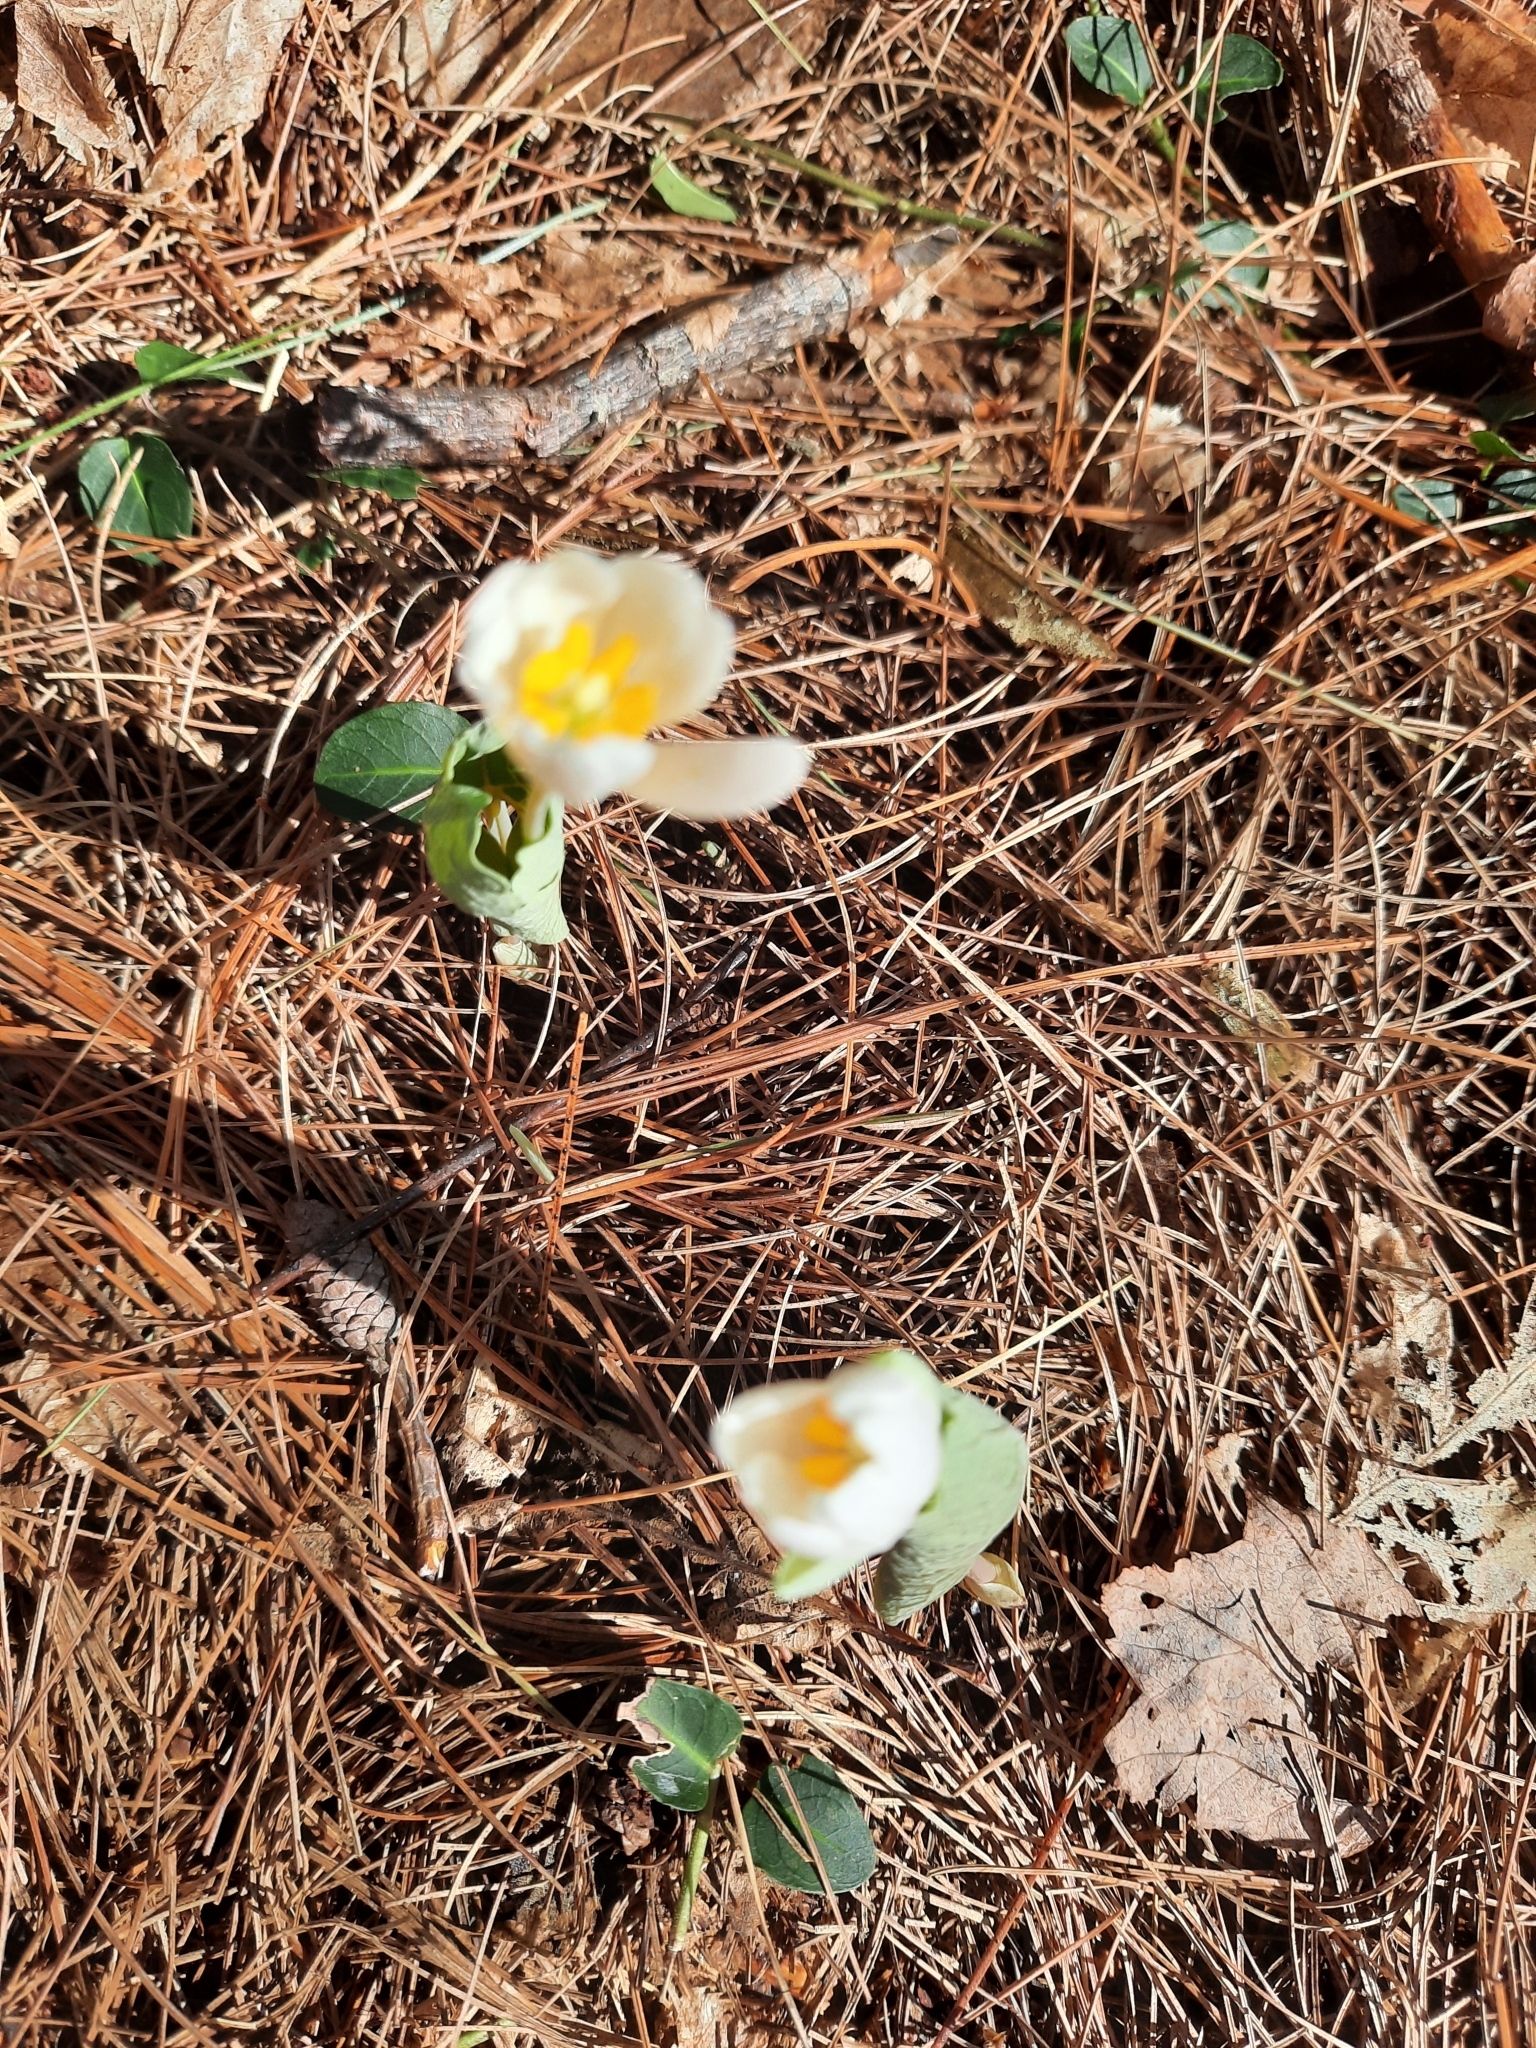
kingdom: Plantae
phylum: Tracheophyta
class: Magnoliopsida
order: Ranunculales
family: Papaveraceae
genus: Sanguinaria
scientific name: Sanguinaria canadensis
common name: Bloodroot
